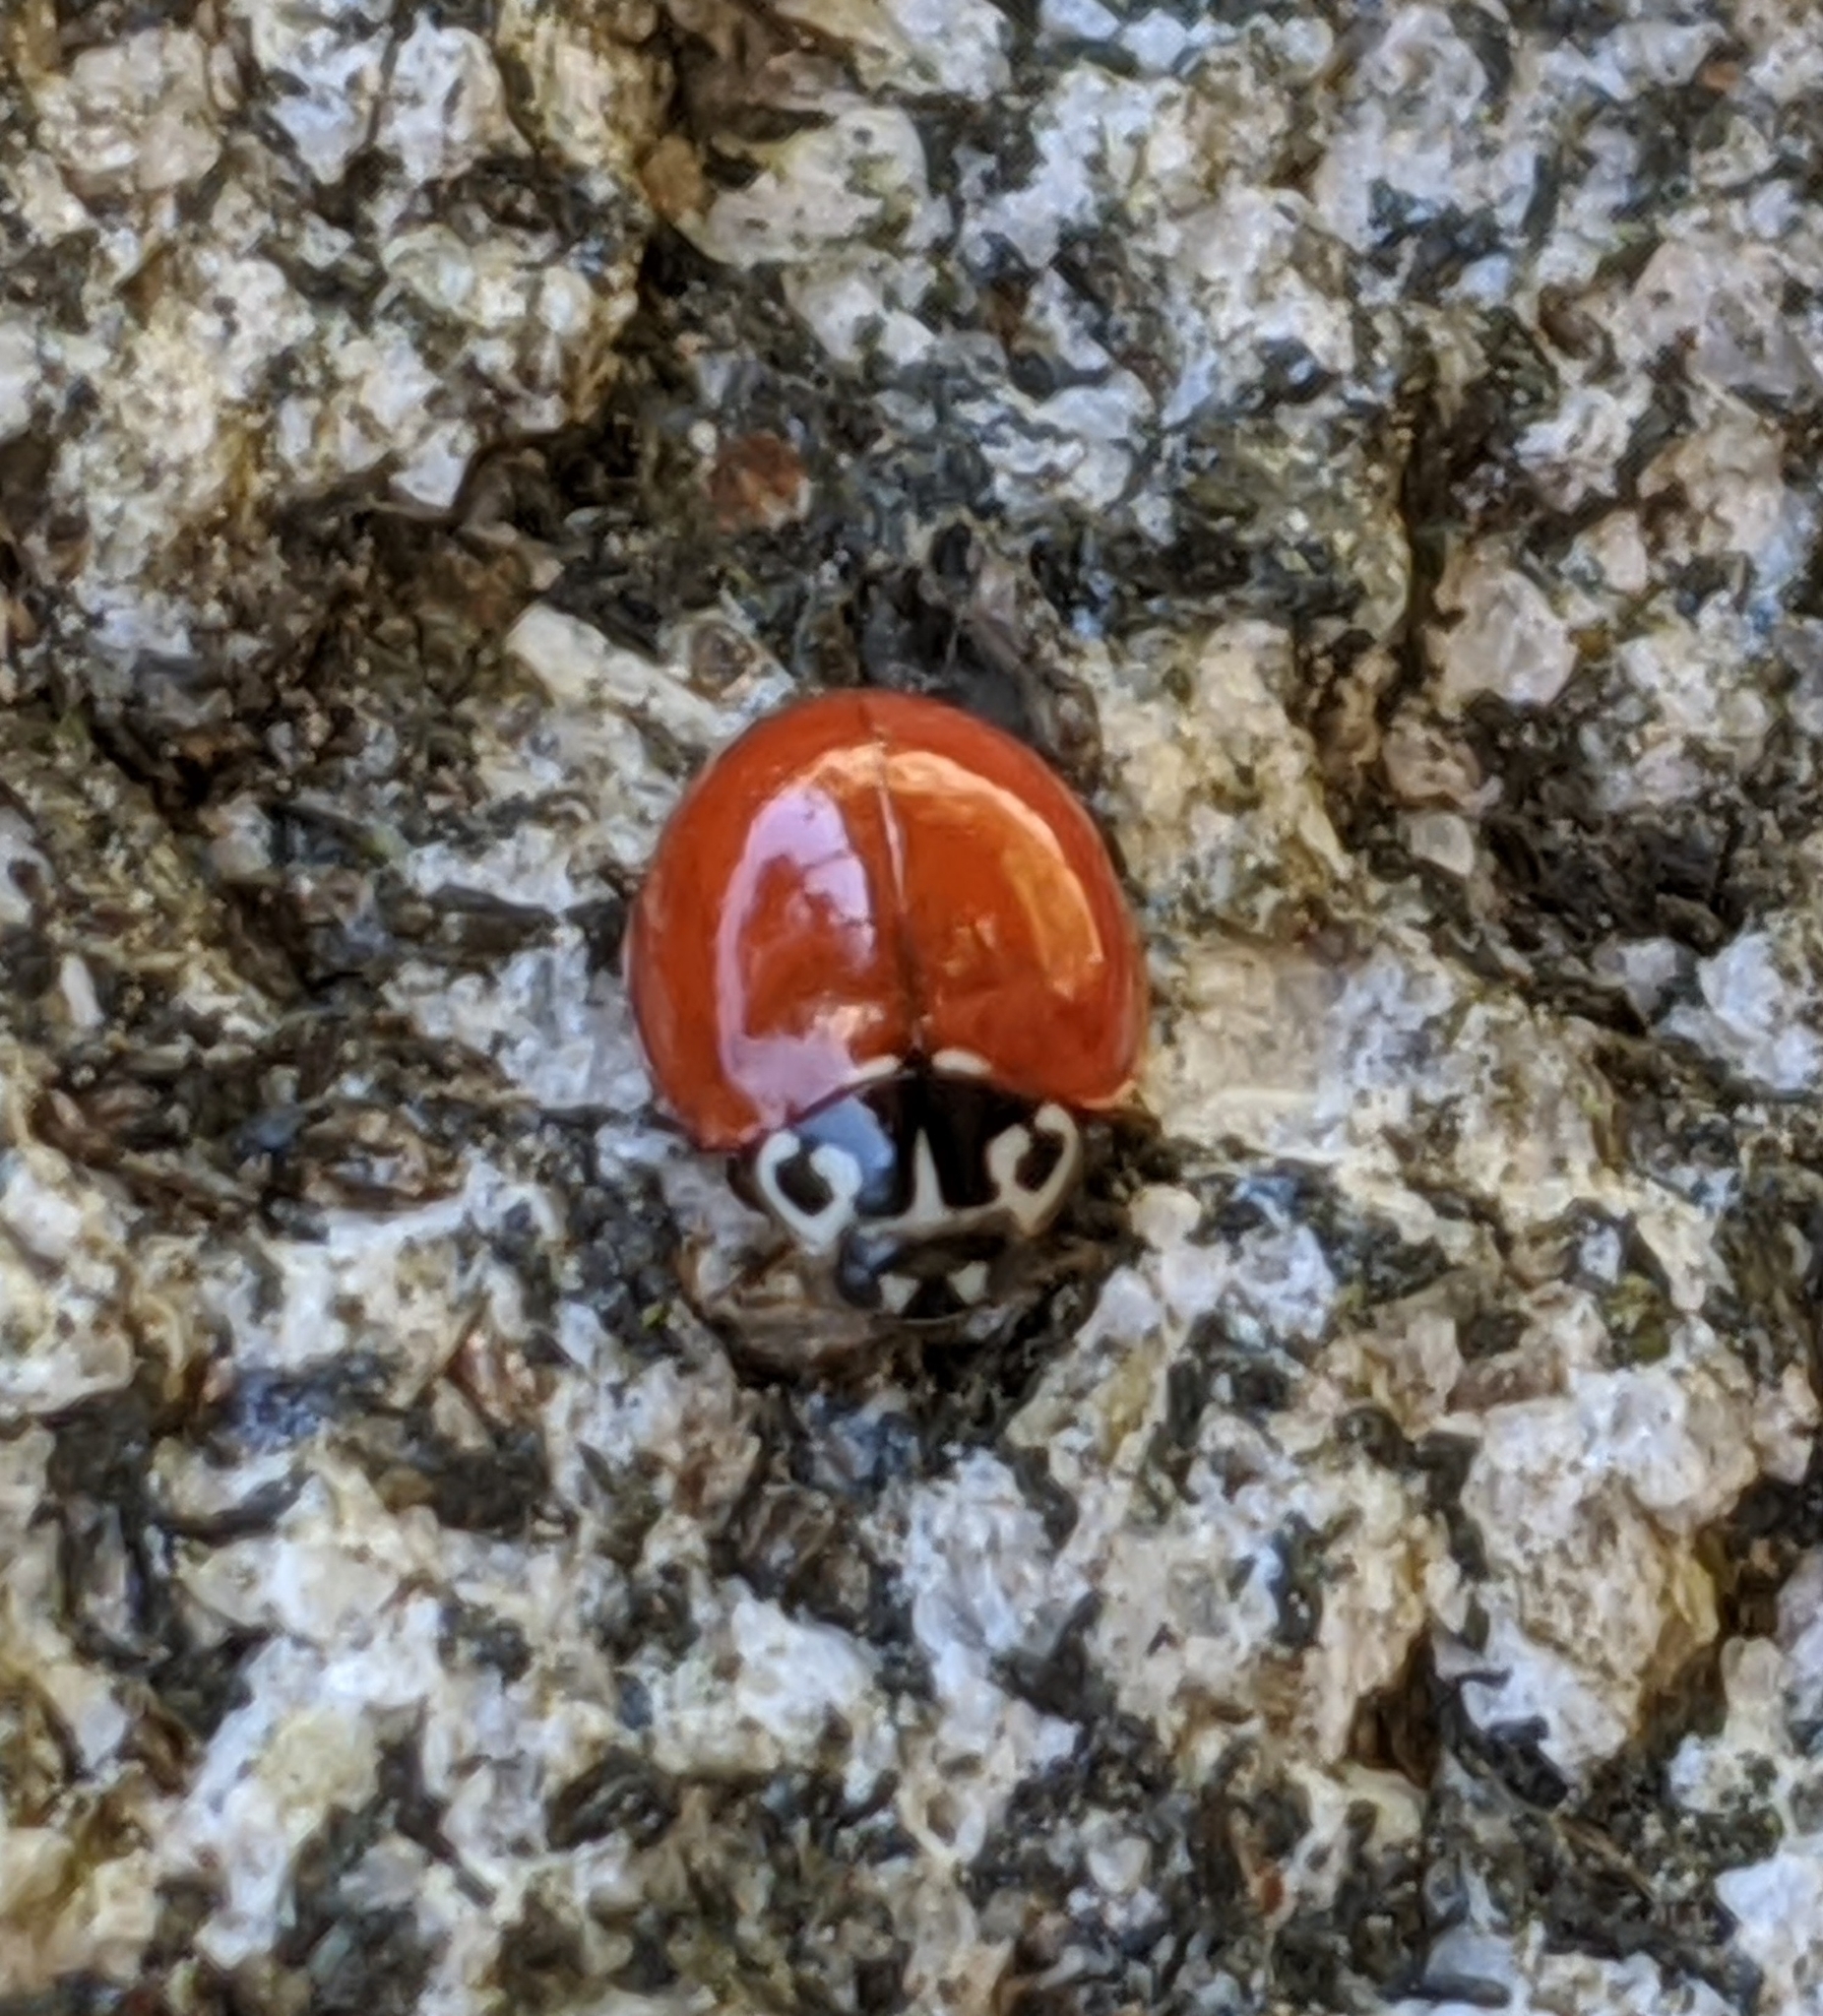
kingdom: Animalia
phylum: Arthropoda
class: Insecta
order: Coleoptera
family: Coccinellidae
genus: Cycloneda
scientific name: Cycloneda polita
